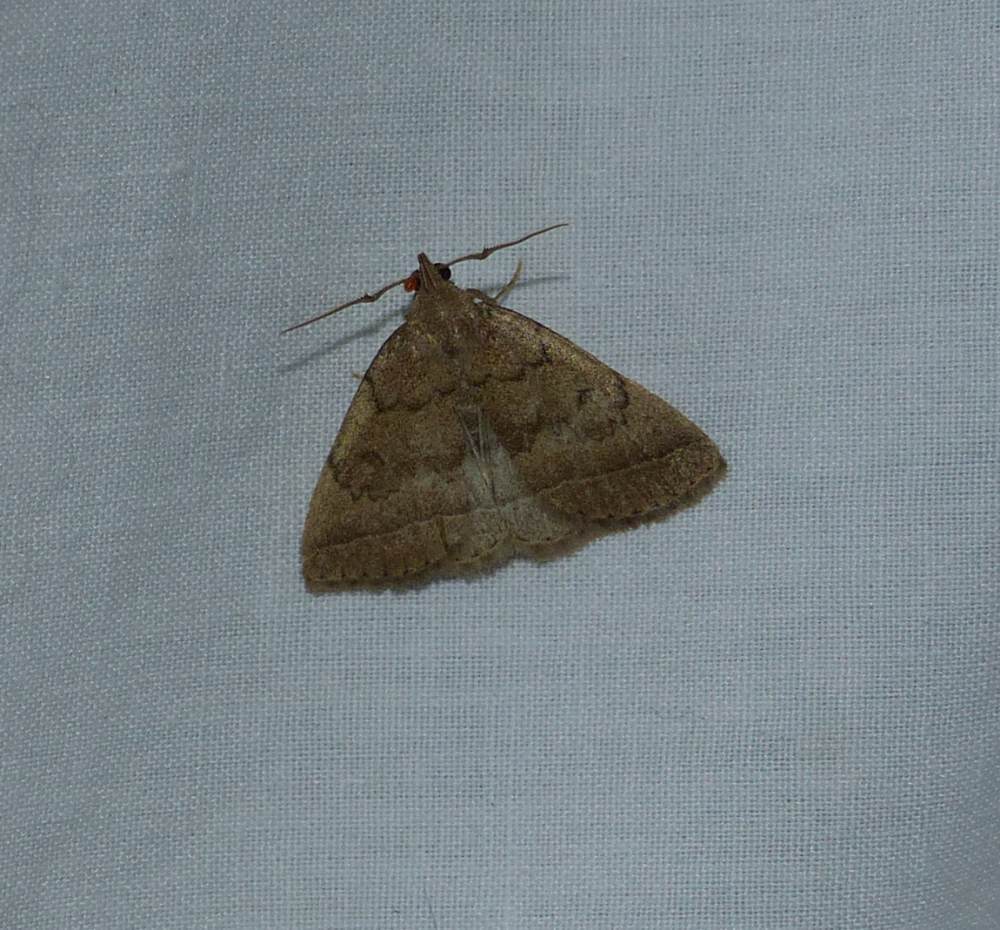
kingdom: Animalia
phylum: Arthropoda
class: Insecta
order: Lepidoptera
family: Erebidae
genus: Zanclognatha
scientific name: Zanclognatha jacchusalis
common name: Yellowish zanclognatha
